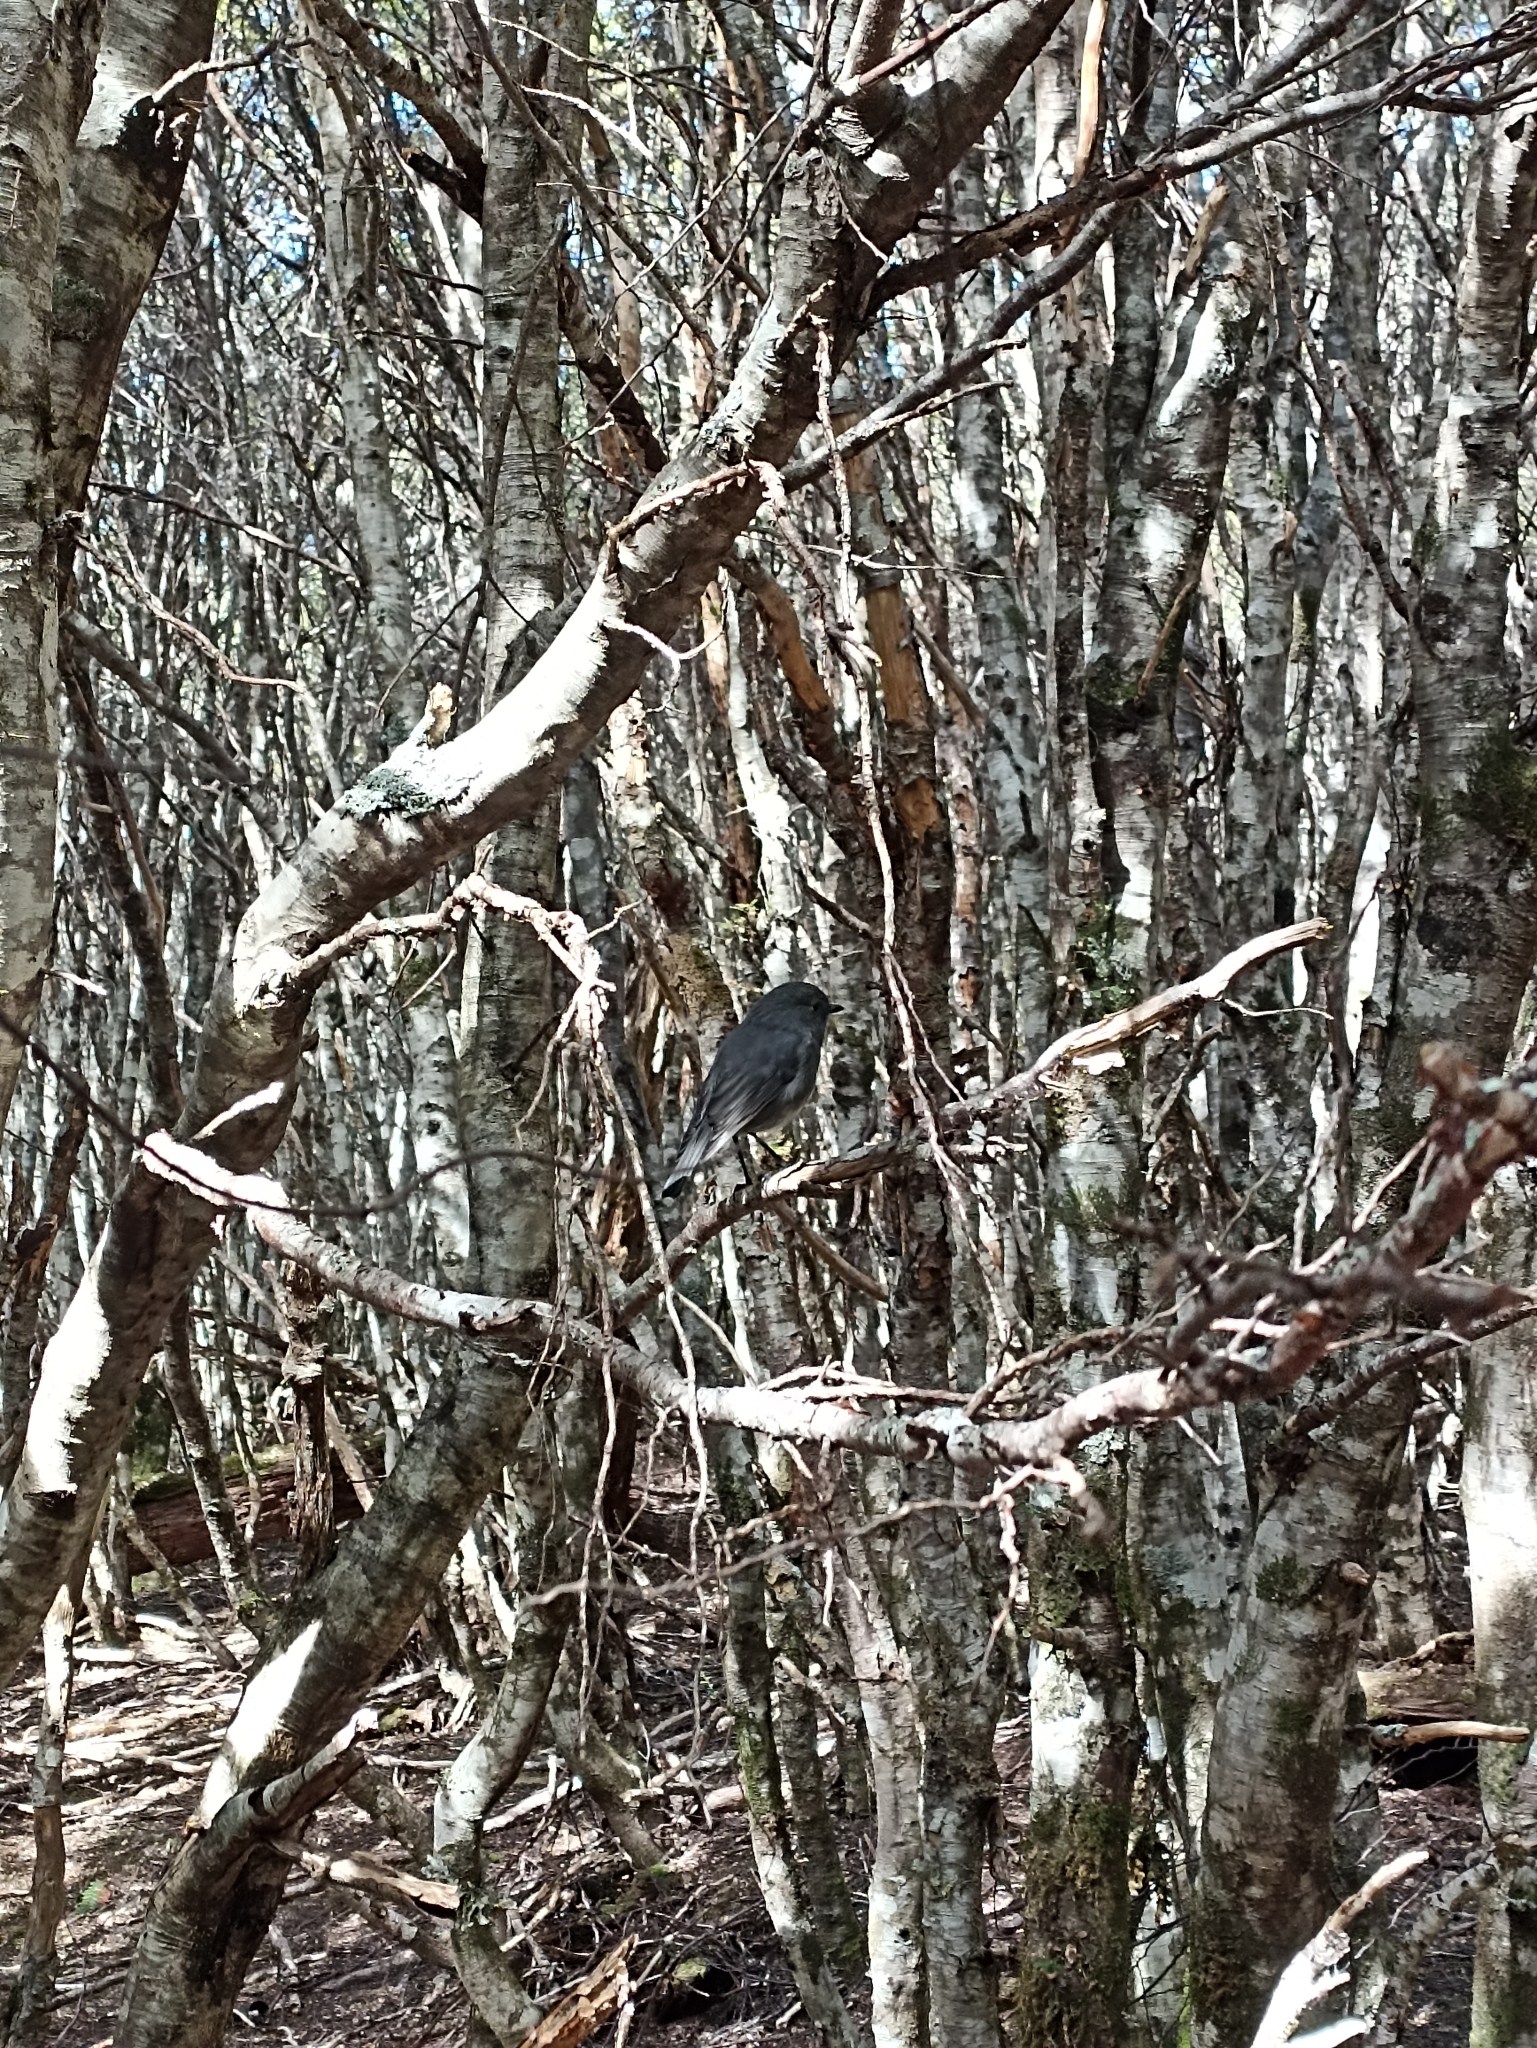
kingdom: Animalia
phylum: Chordata
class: Aves
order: Passeriformes
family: Petroicidae
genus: Petroica
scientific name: Petroica australis
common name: New zealand robin
